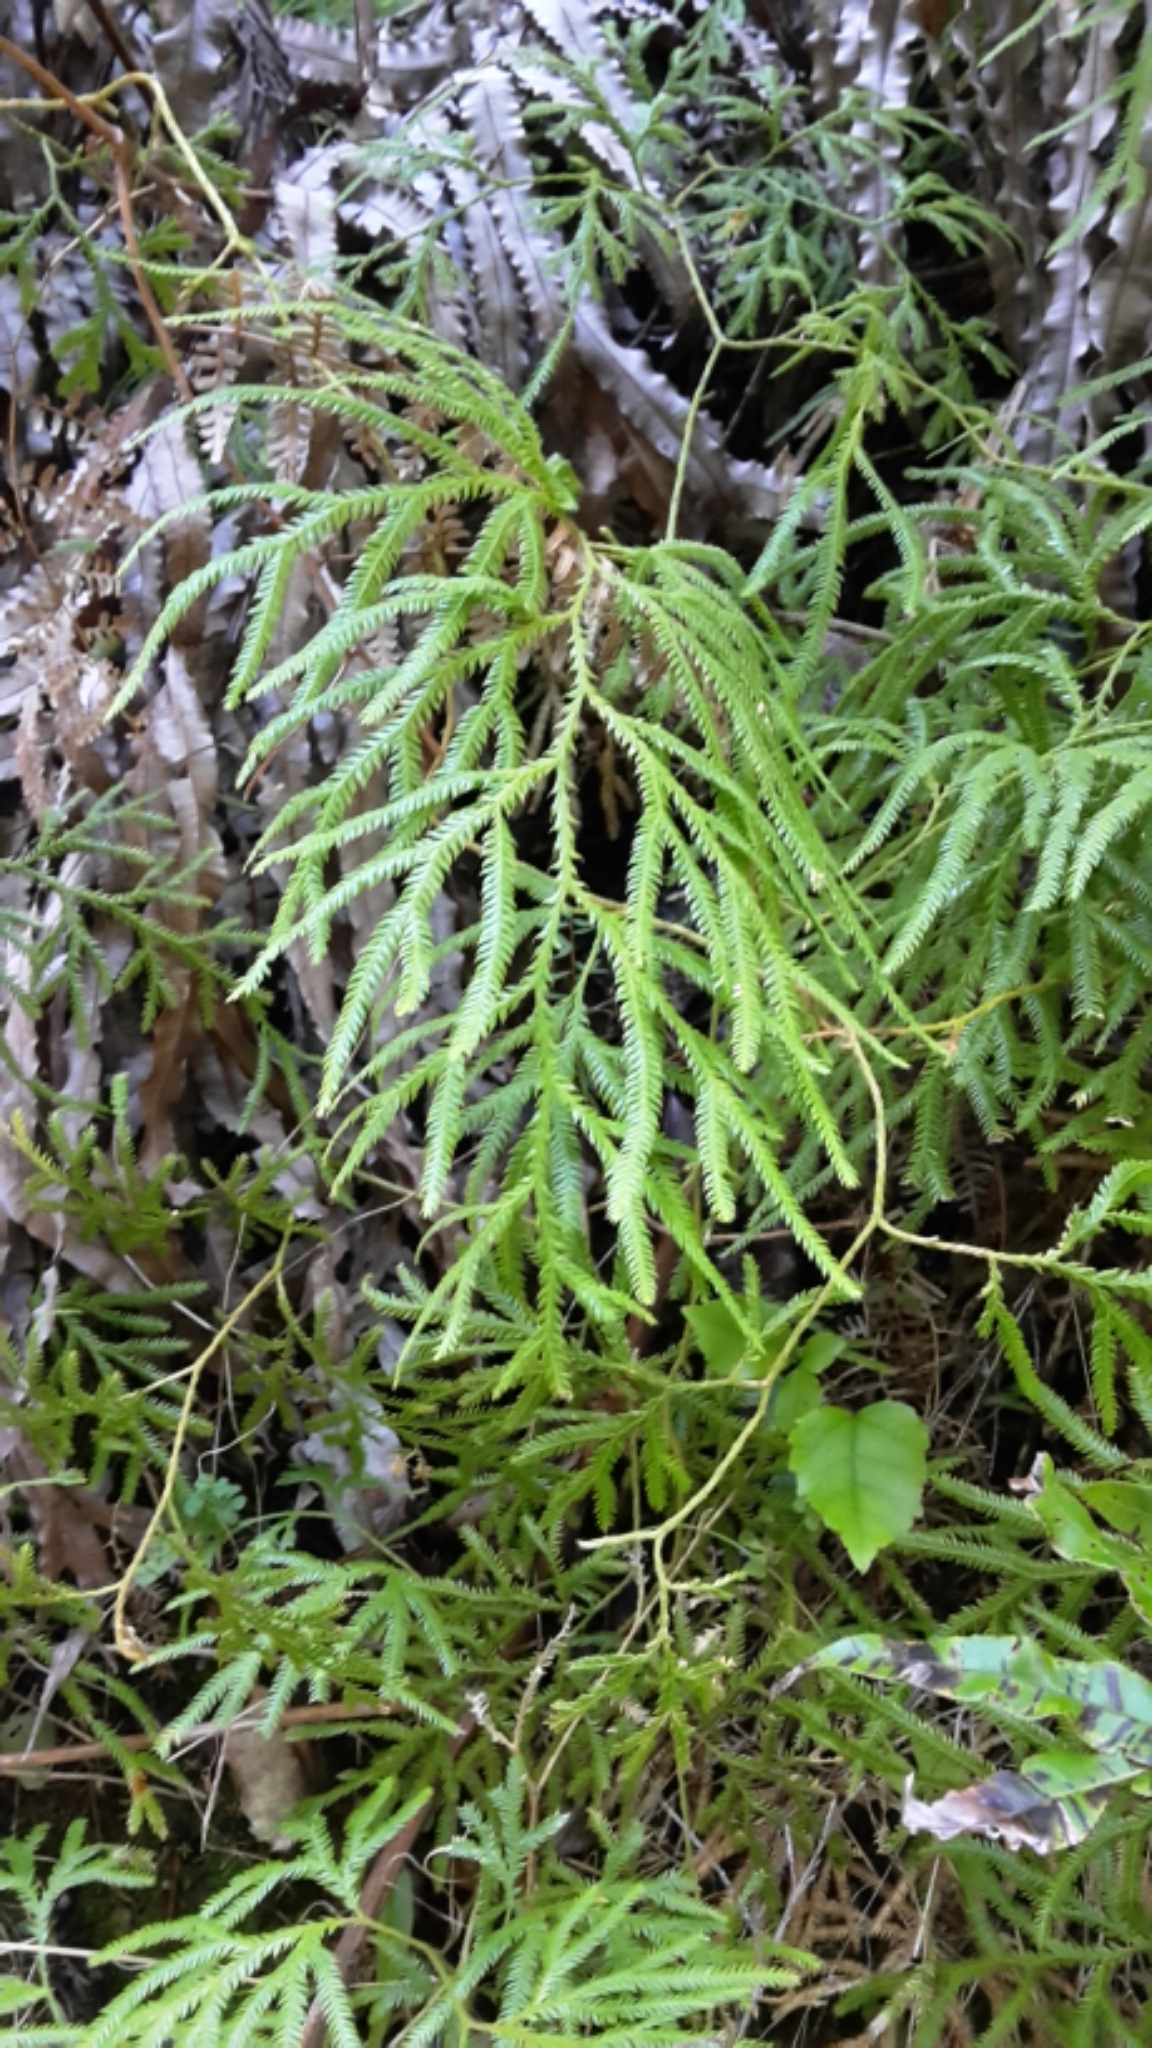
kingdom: Plantae
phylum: Tracheophyta
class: Lycopodiopsida
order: Lycopodiales
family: Lycopodiaceae
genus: Lycopodium
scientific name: Lycopodium volubile
